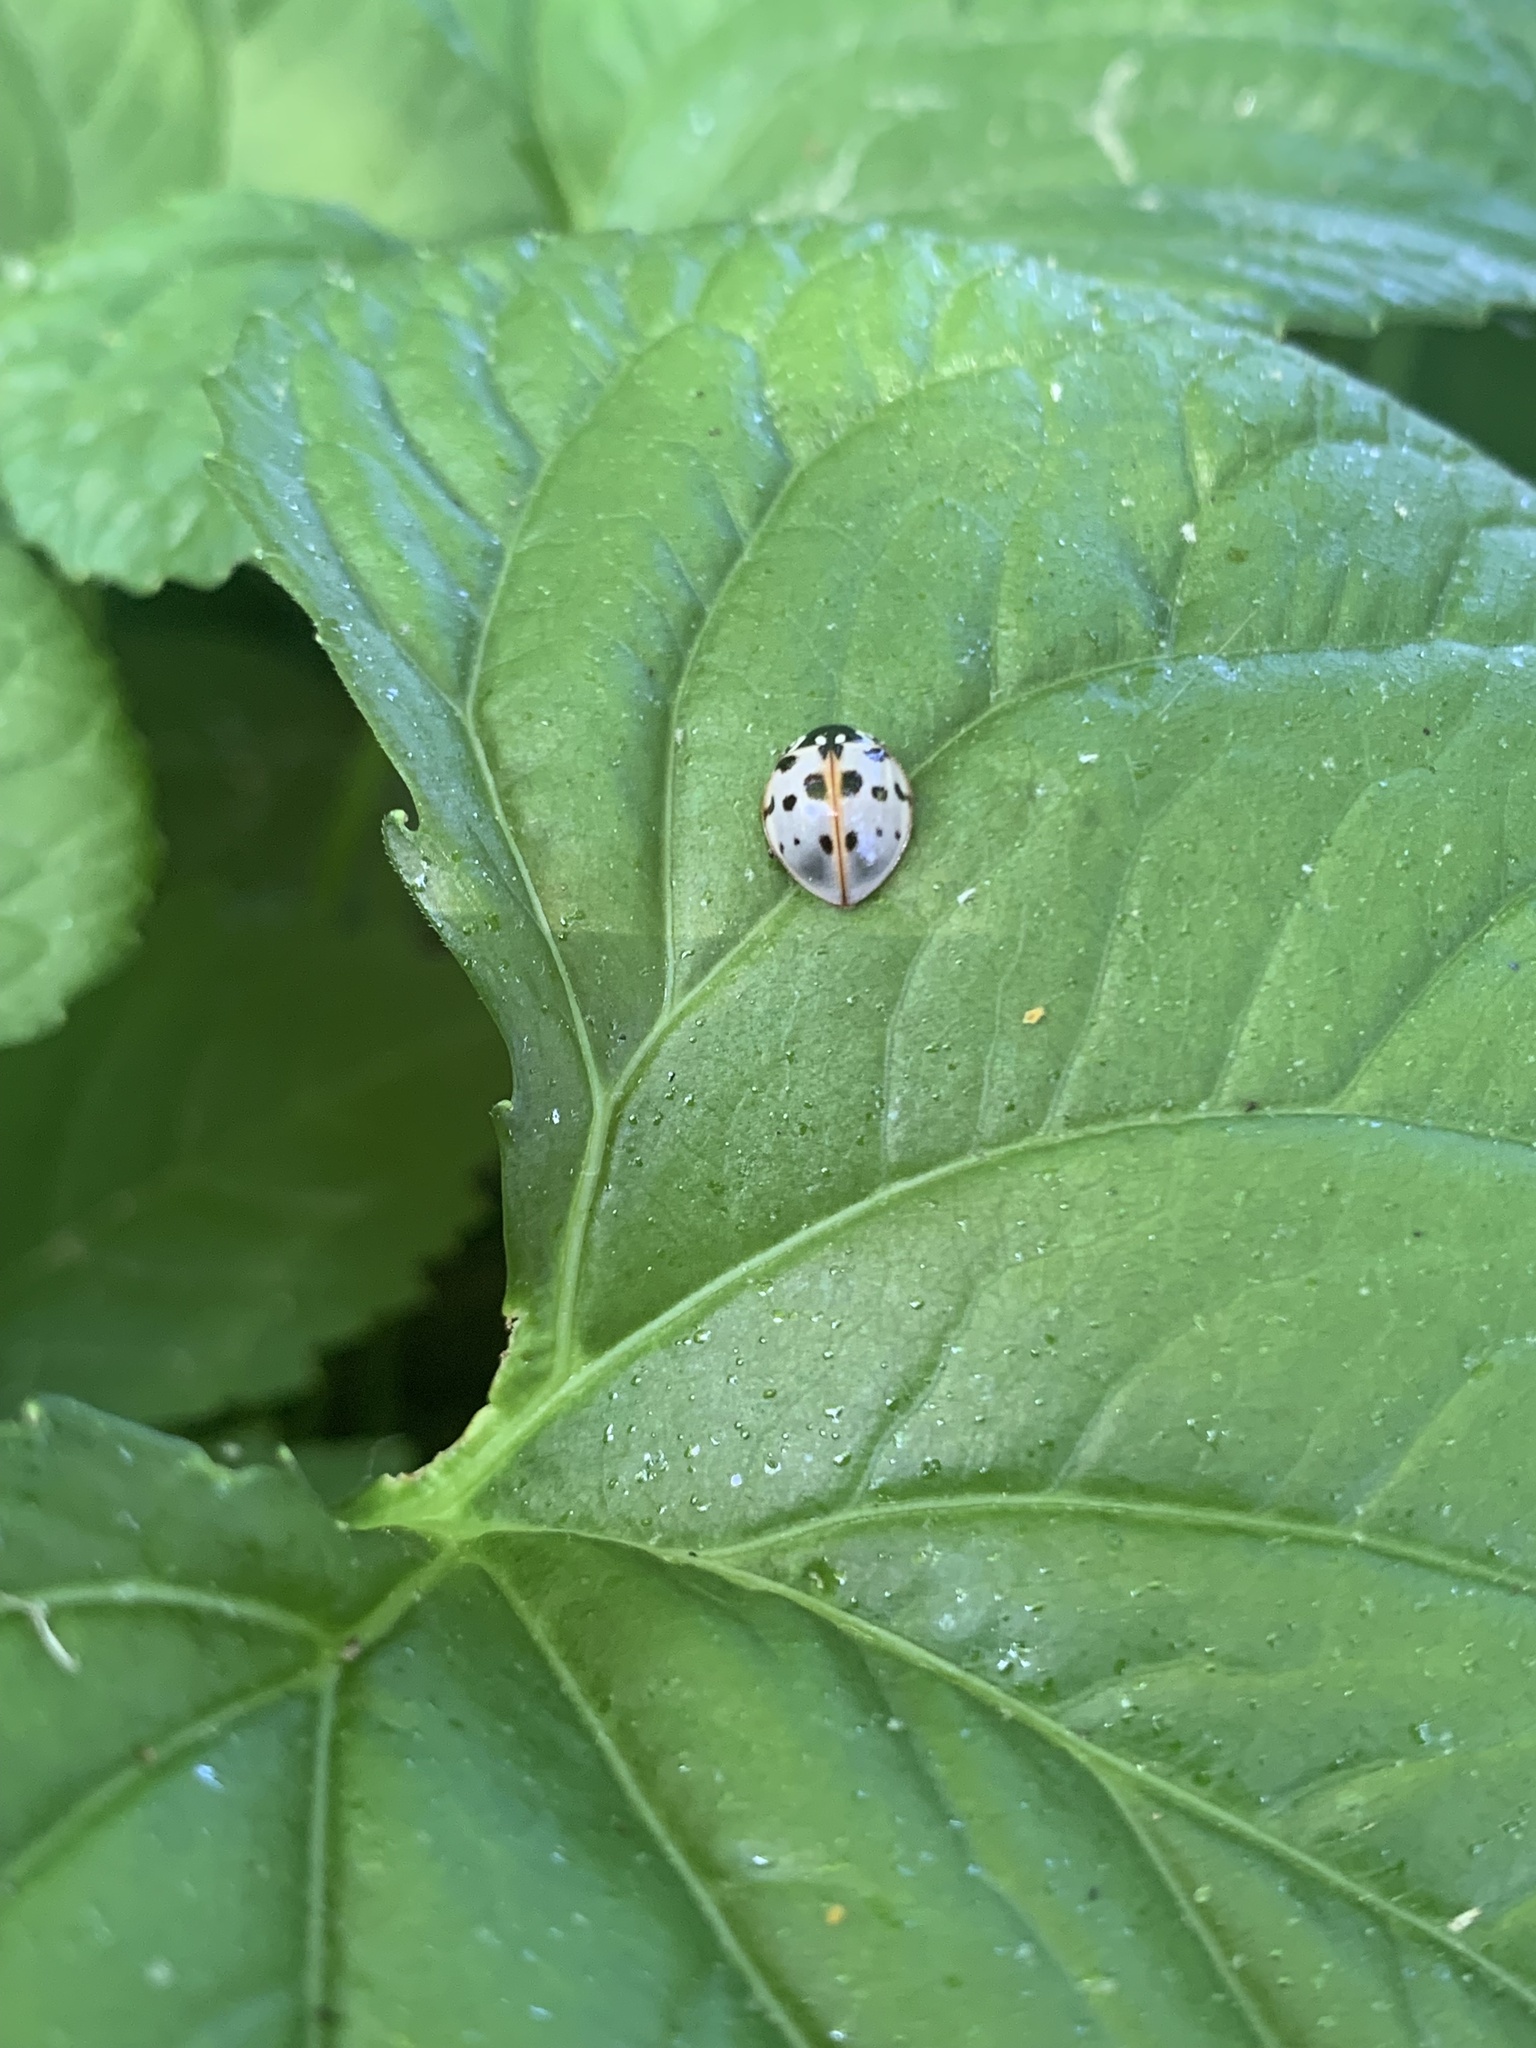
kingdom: Animalia
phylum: Arthropoda
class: Insecta
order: Coleoptera
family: Coccinellidae
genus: Anatis
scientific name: Anatis labiculata
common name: Fifteen-spotted lady beetle
